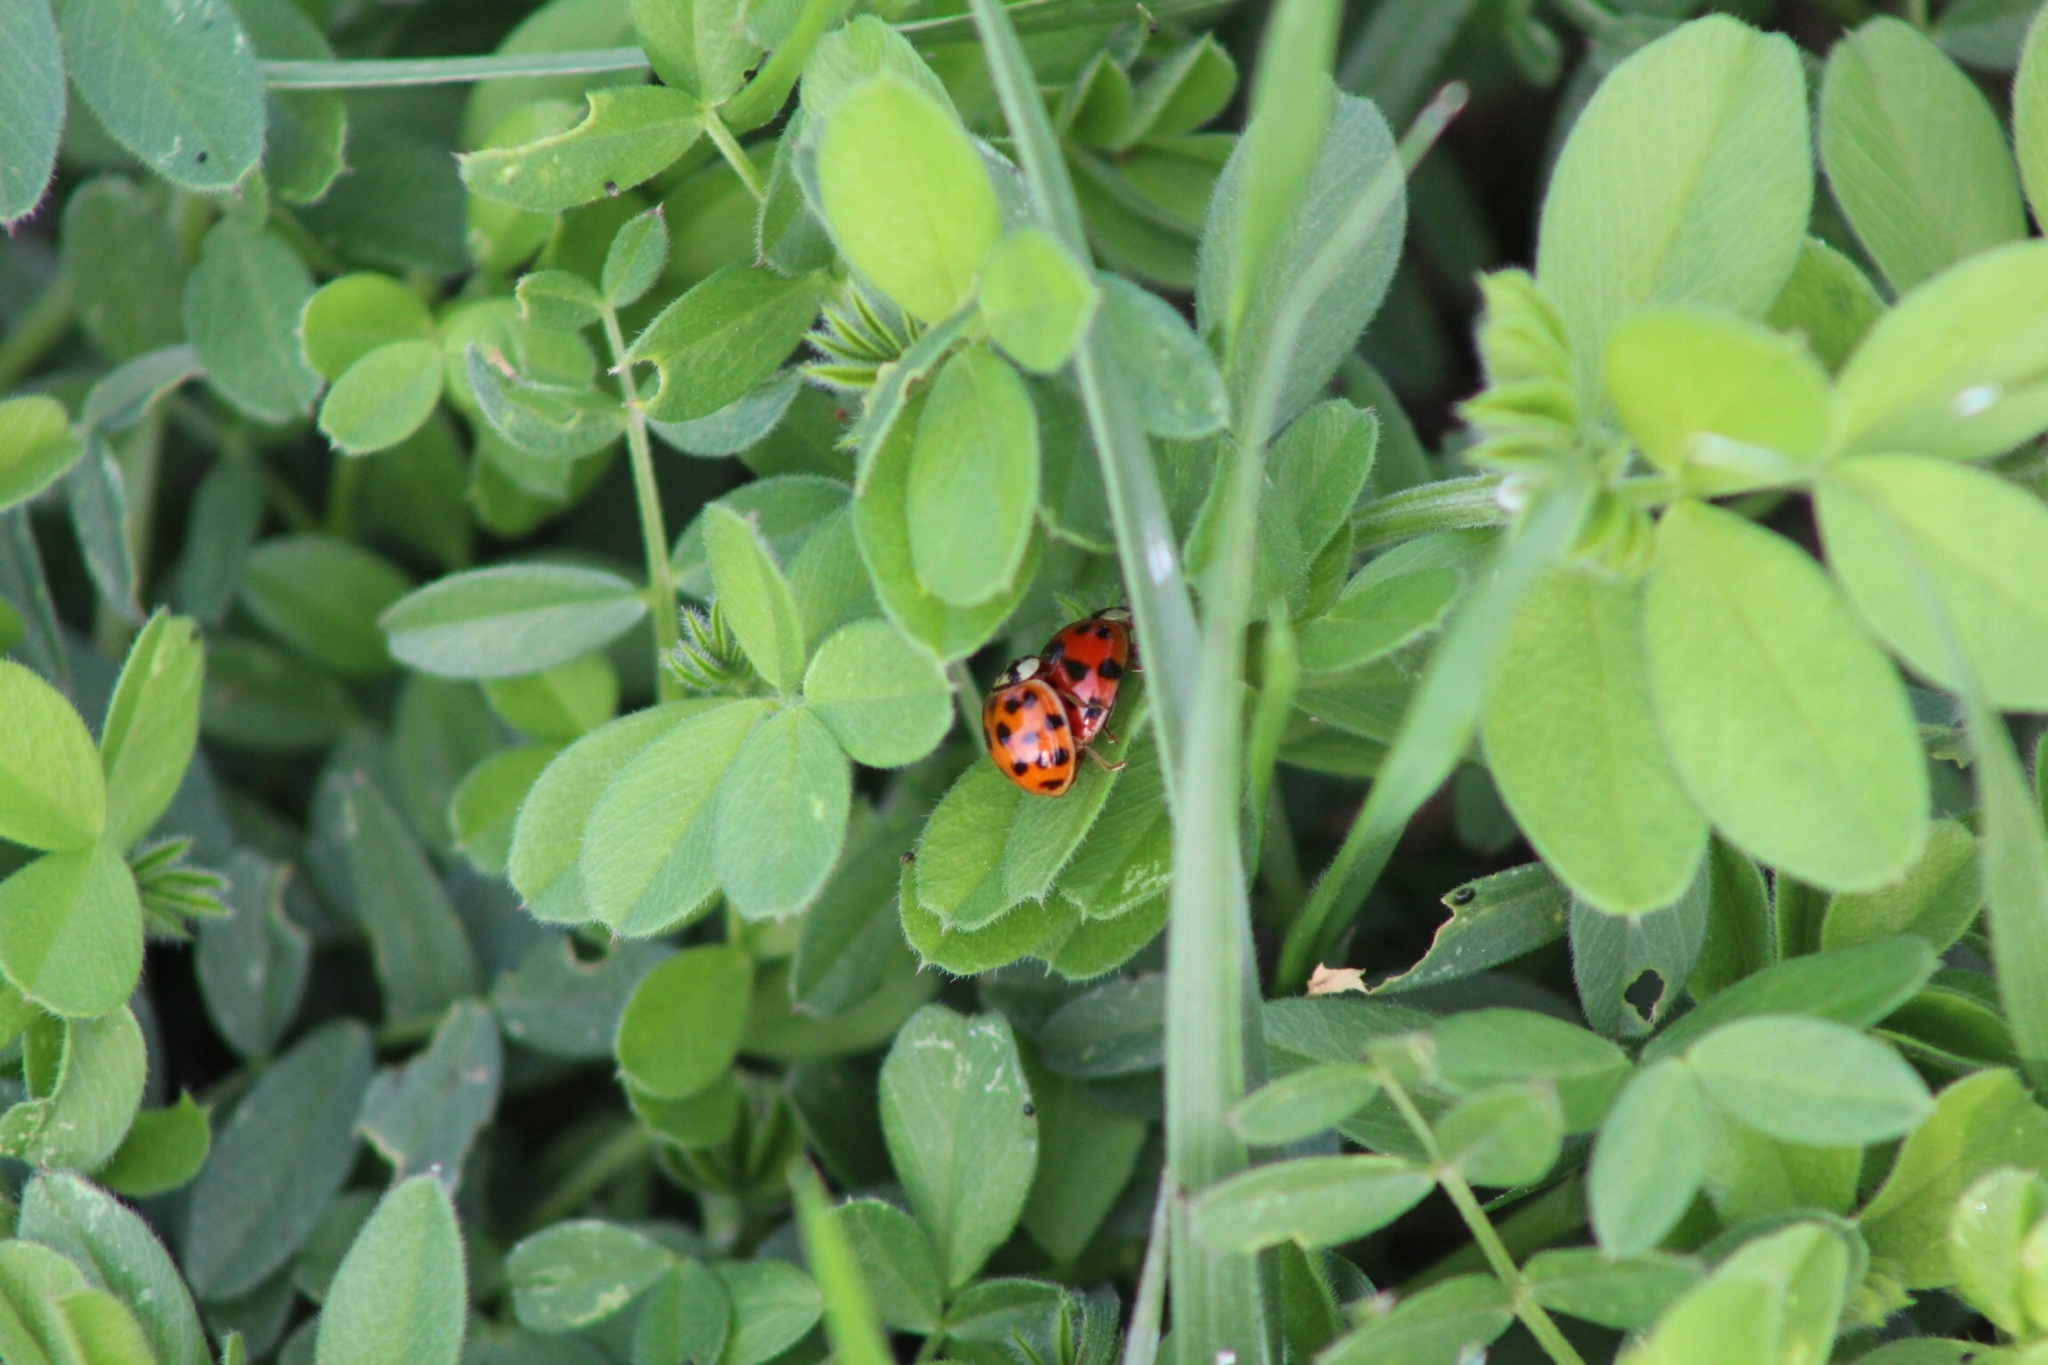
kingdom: Animalia
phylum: Arthropoda
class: Insecta
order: Coleoptera
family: Coccinellidae
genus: Harmonia
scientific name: Harmonia axyridis
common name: Harlequin ladybird
